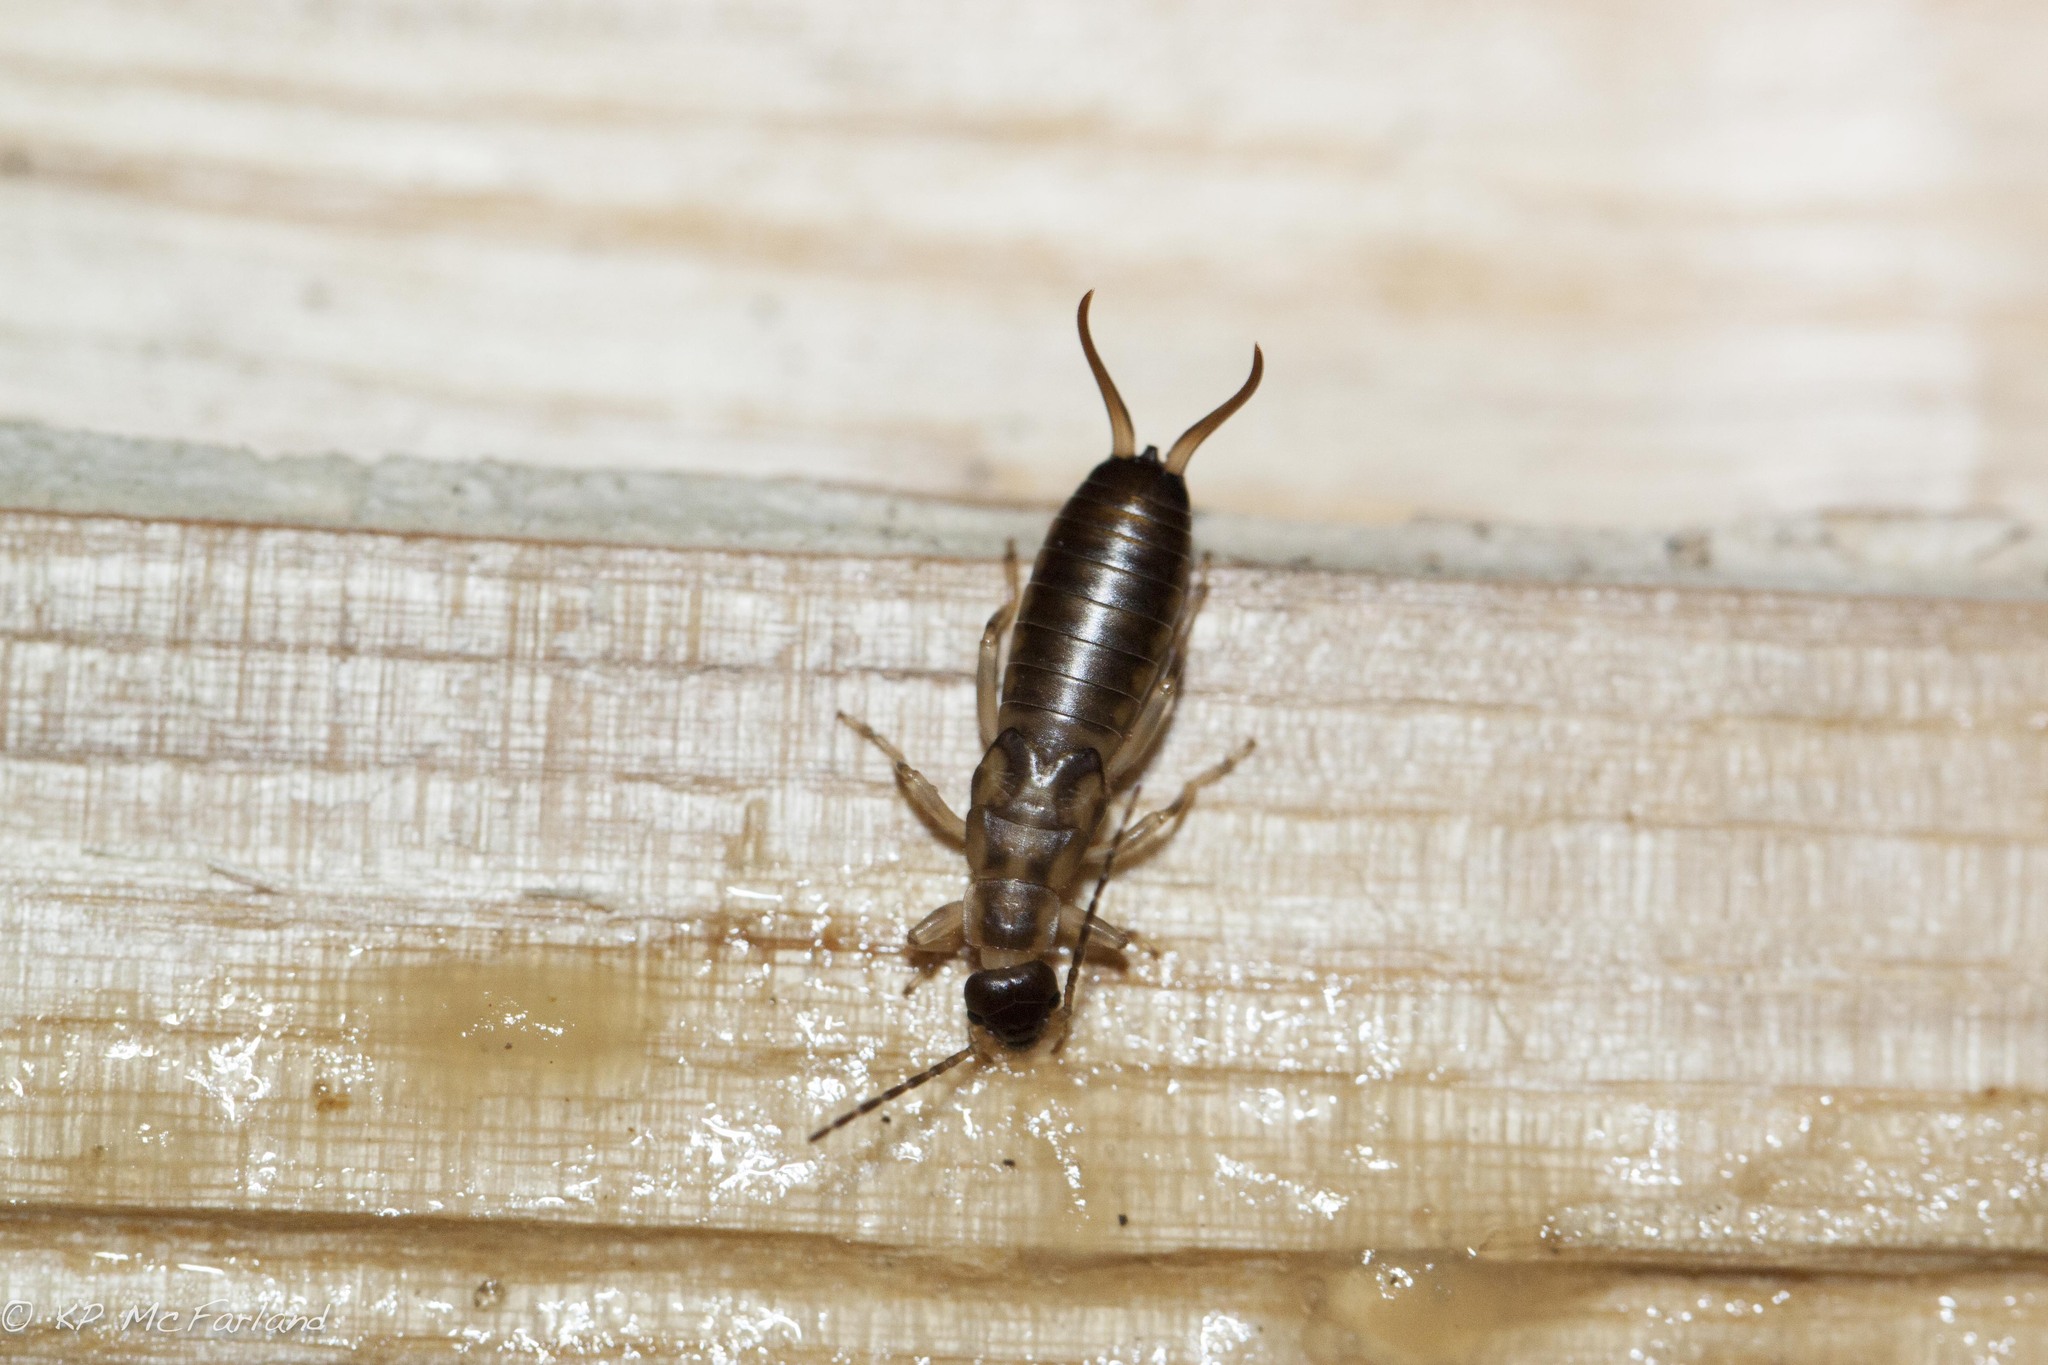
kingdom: Animalia
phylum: Arthropoda
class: Insecta
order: Dermaptera
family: Forficulidae
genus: Forficula
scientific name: Forficula
